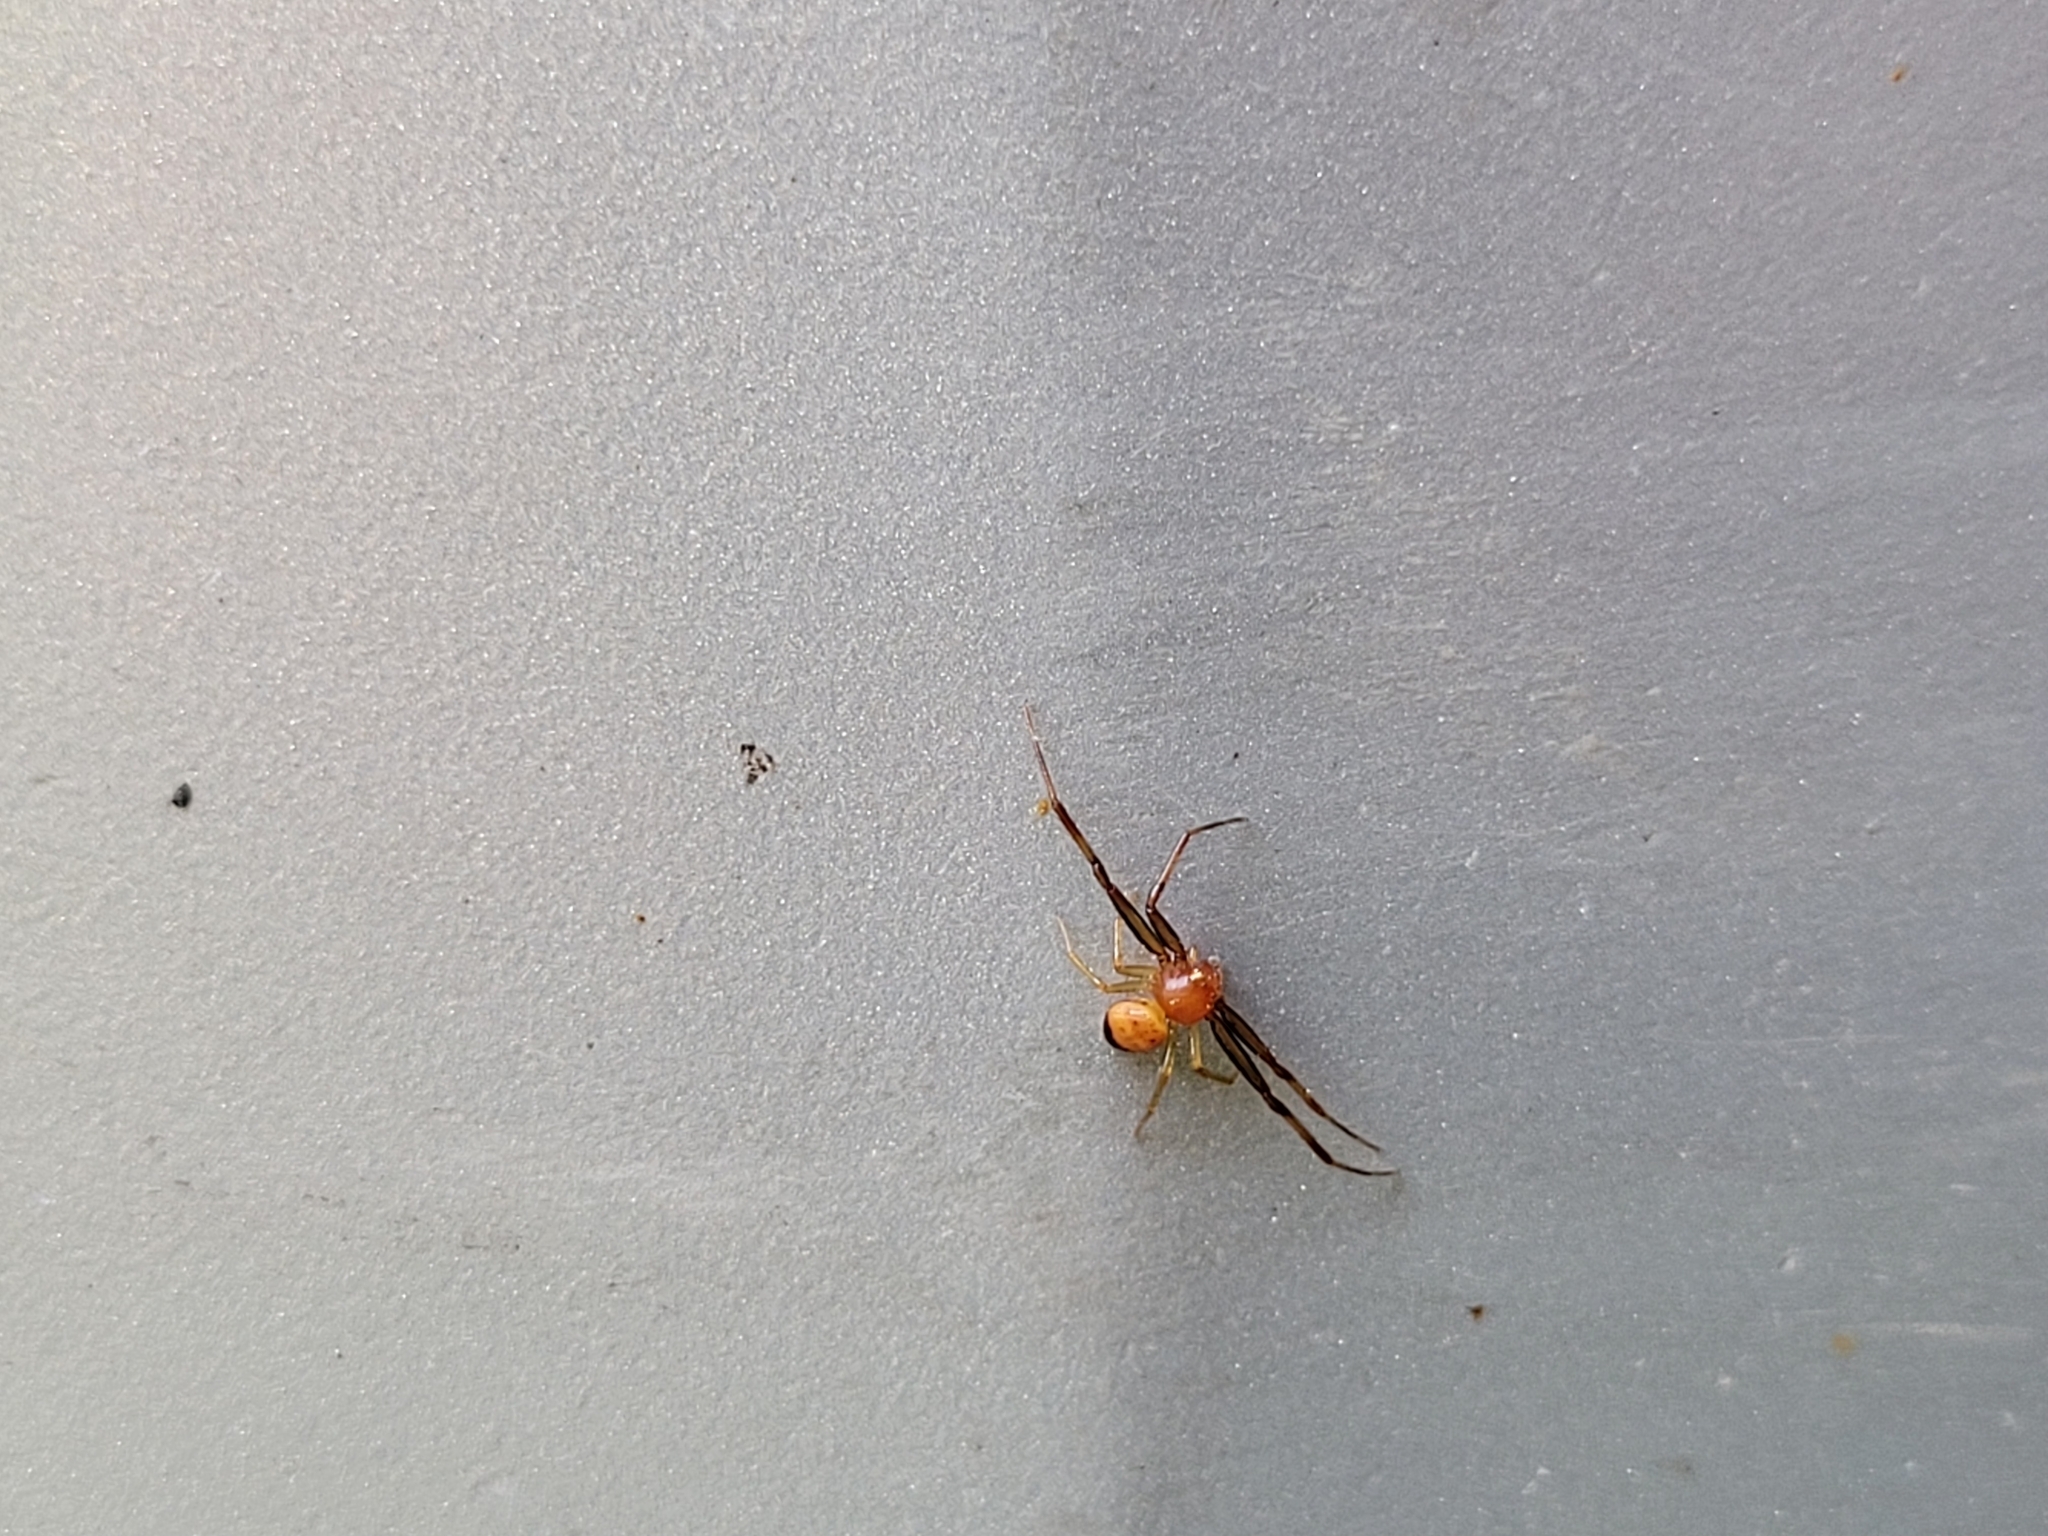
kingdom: Animalia
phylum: Arthropoda
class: Arachnida
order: Araneae
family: Thomisidae
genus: Synema
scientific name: Synema parvulum
